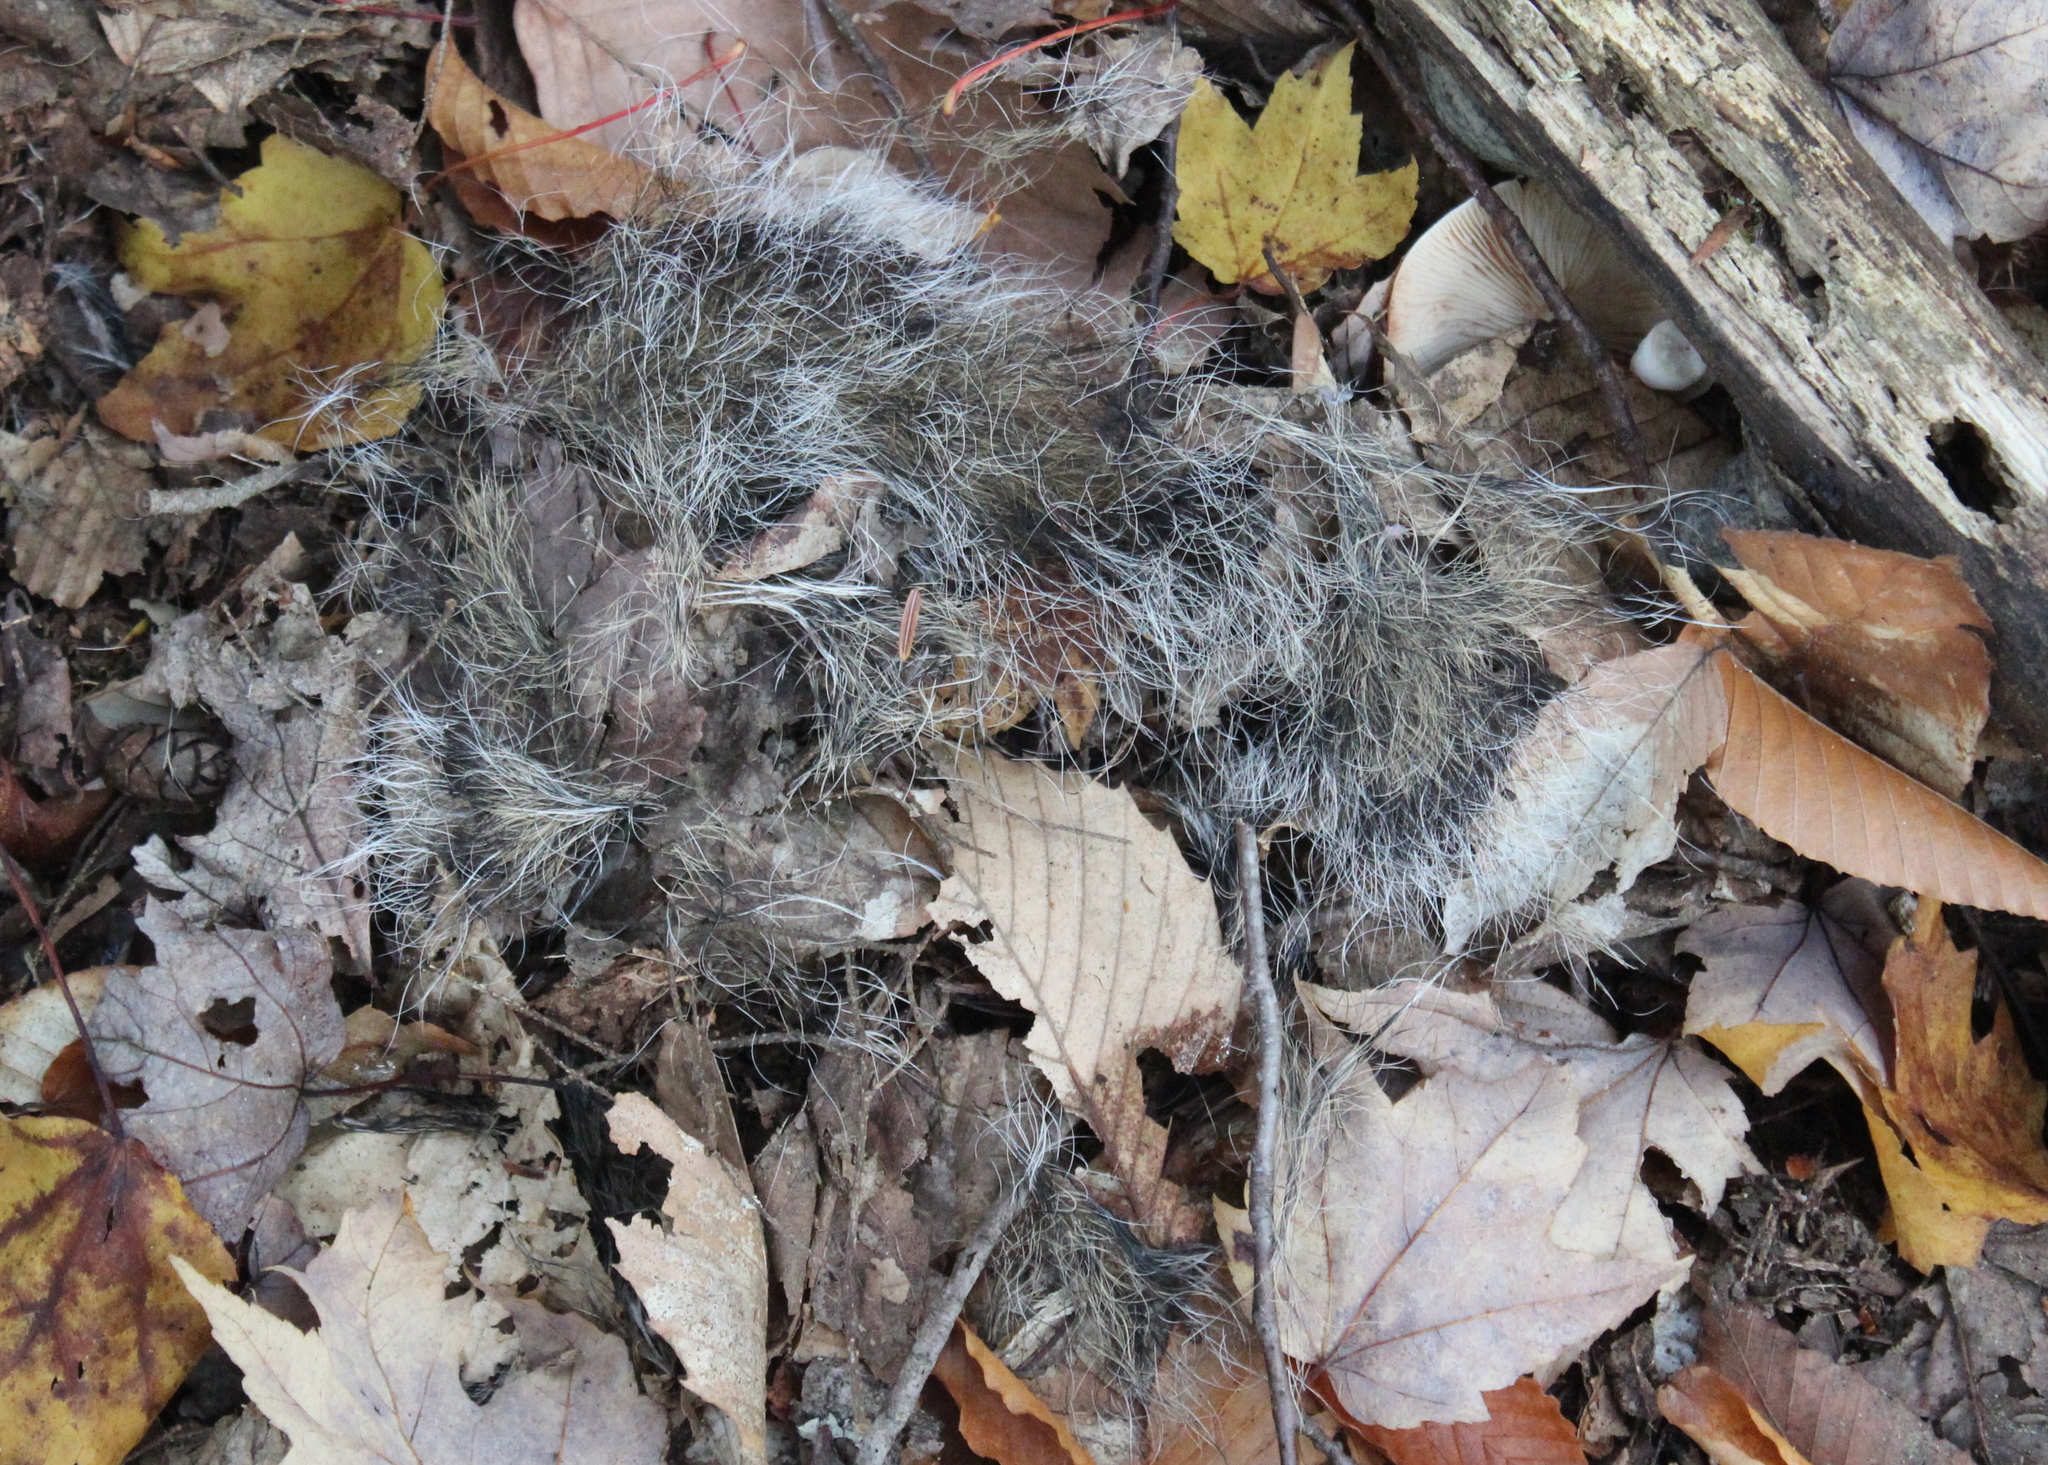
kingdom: Animalia
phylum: Chordata
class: Mammalia
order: Rodentia
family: Sciuridae
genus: Sciurus
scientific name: Sciurus carolinensis
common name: Eastern gray squirrel
